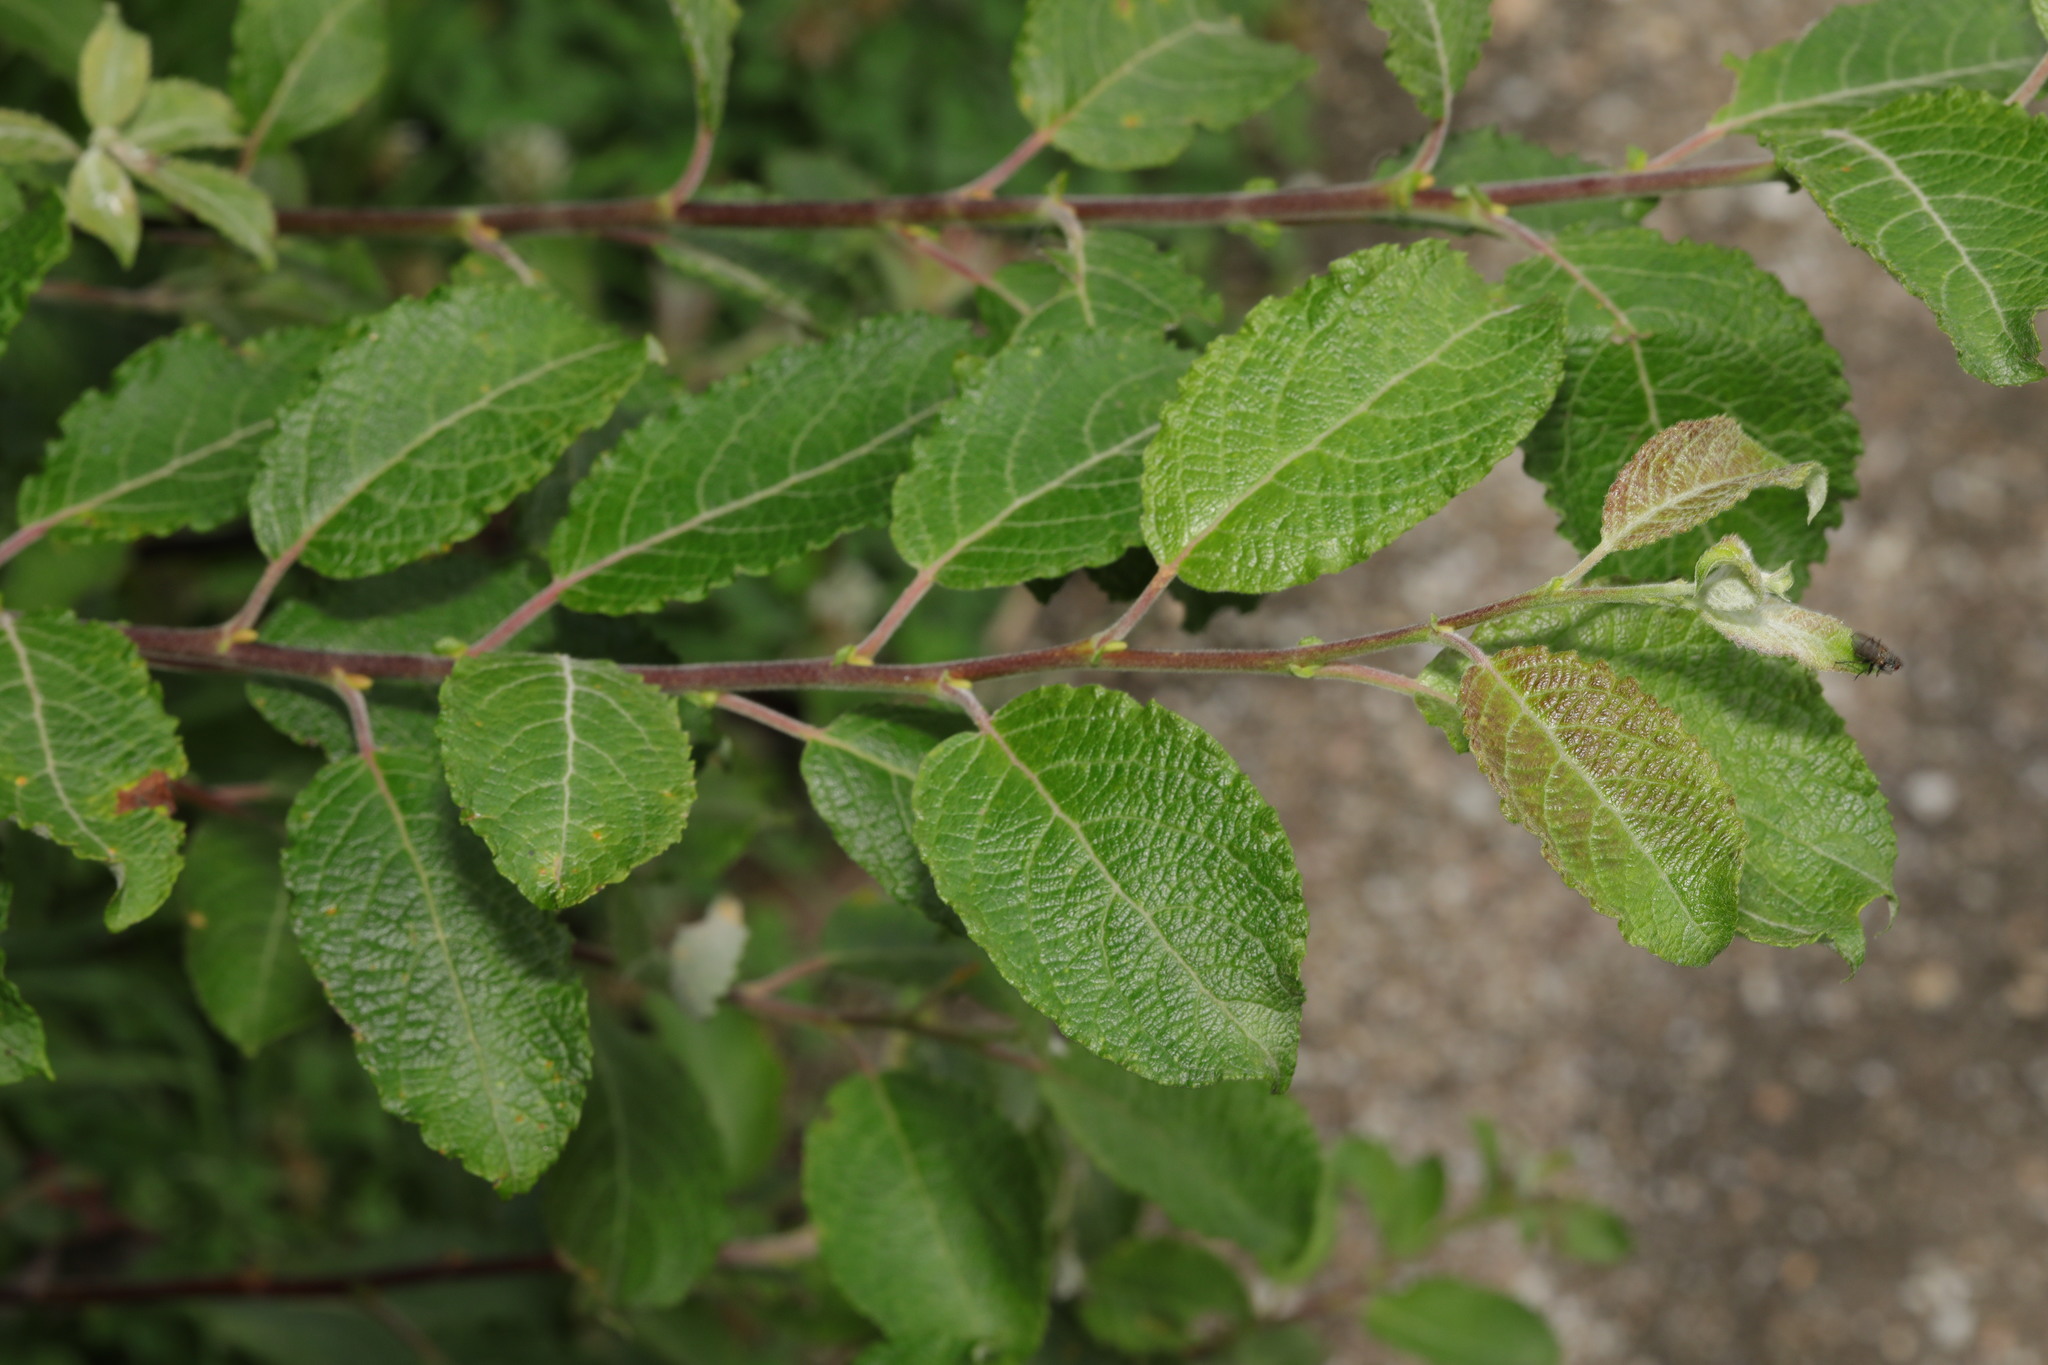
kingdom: Plantae
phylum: Tracheophyta
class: Magnoliopsida
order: Malpighiales
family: Salicaceae
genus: Salix
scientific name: Salix caprea
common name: Goat willow
